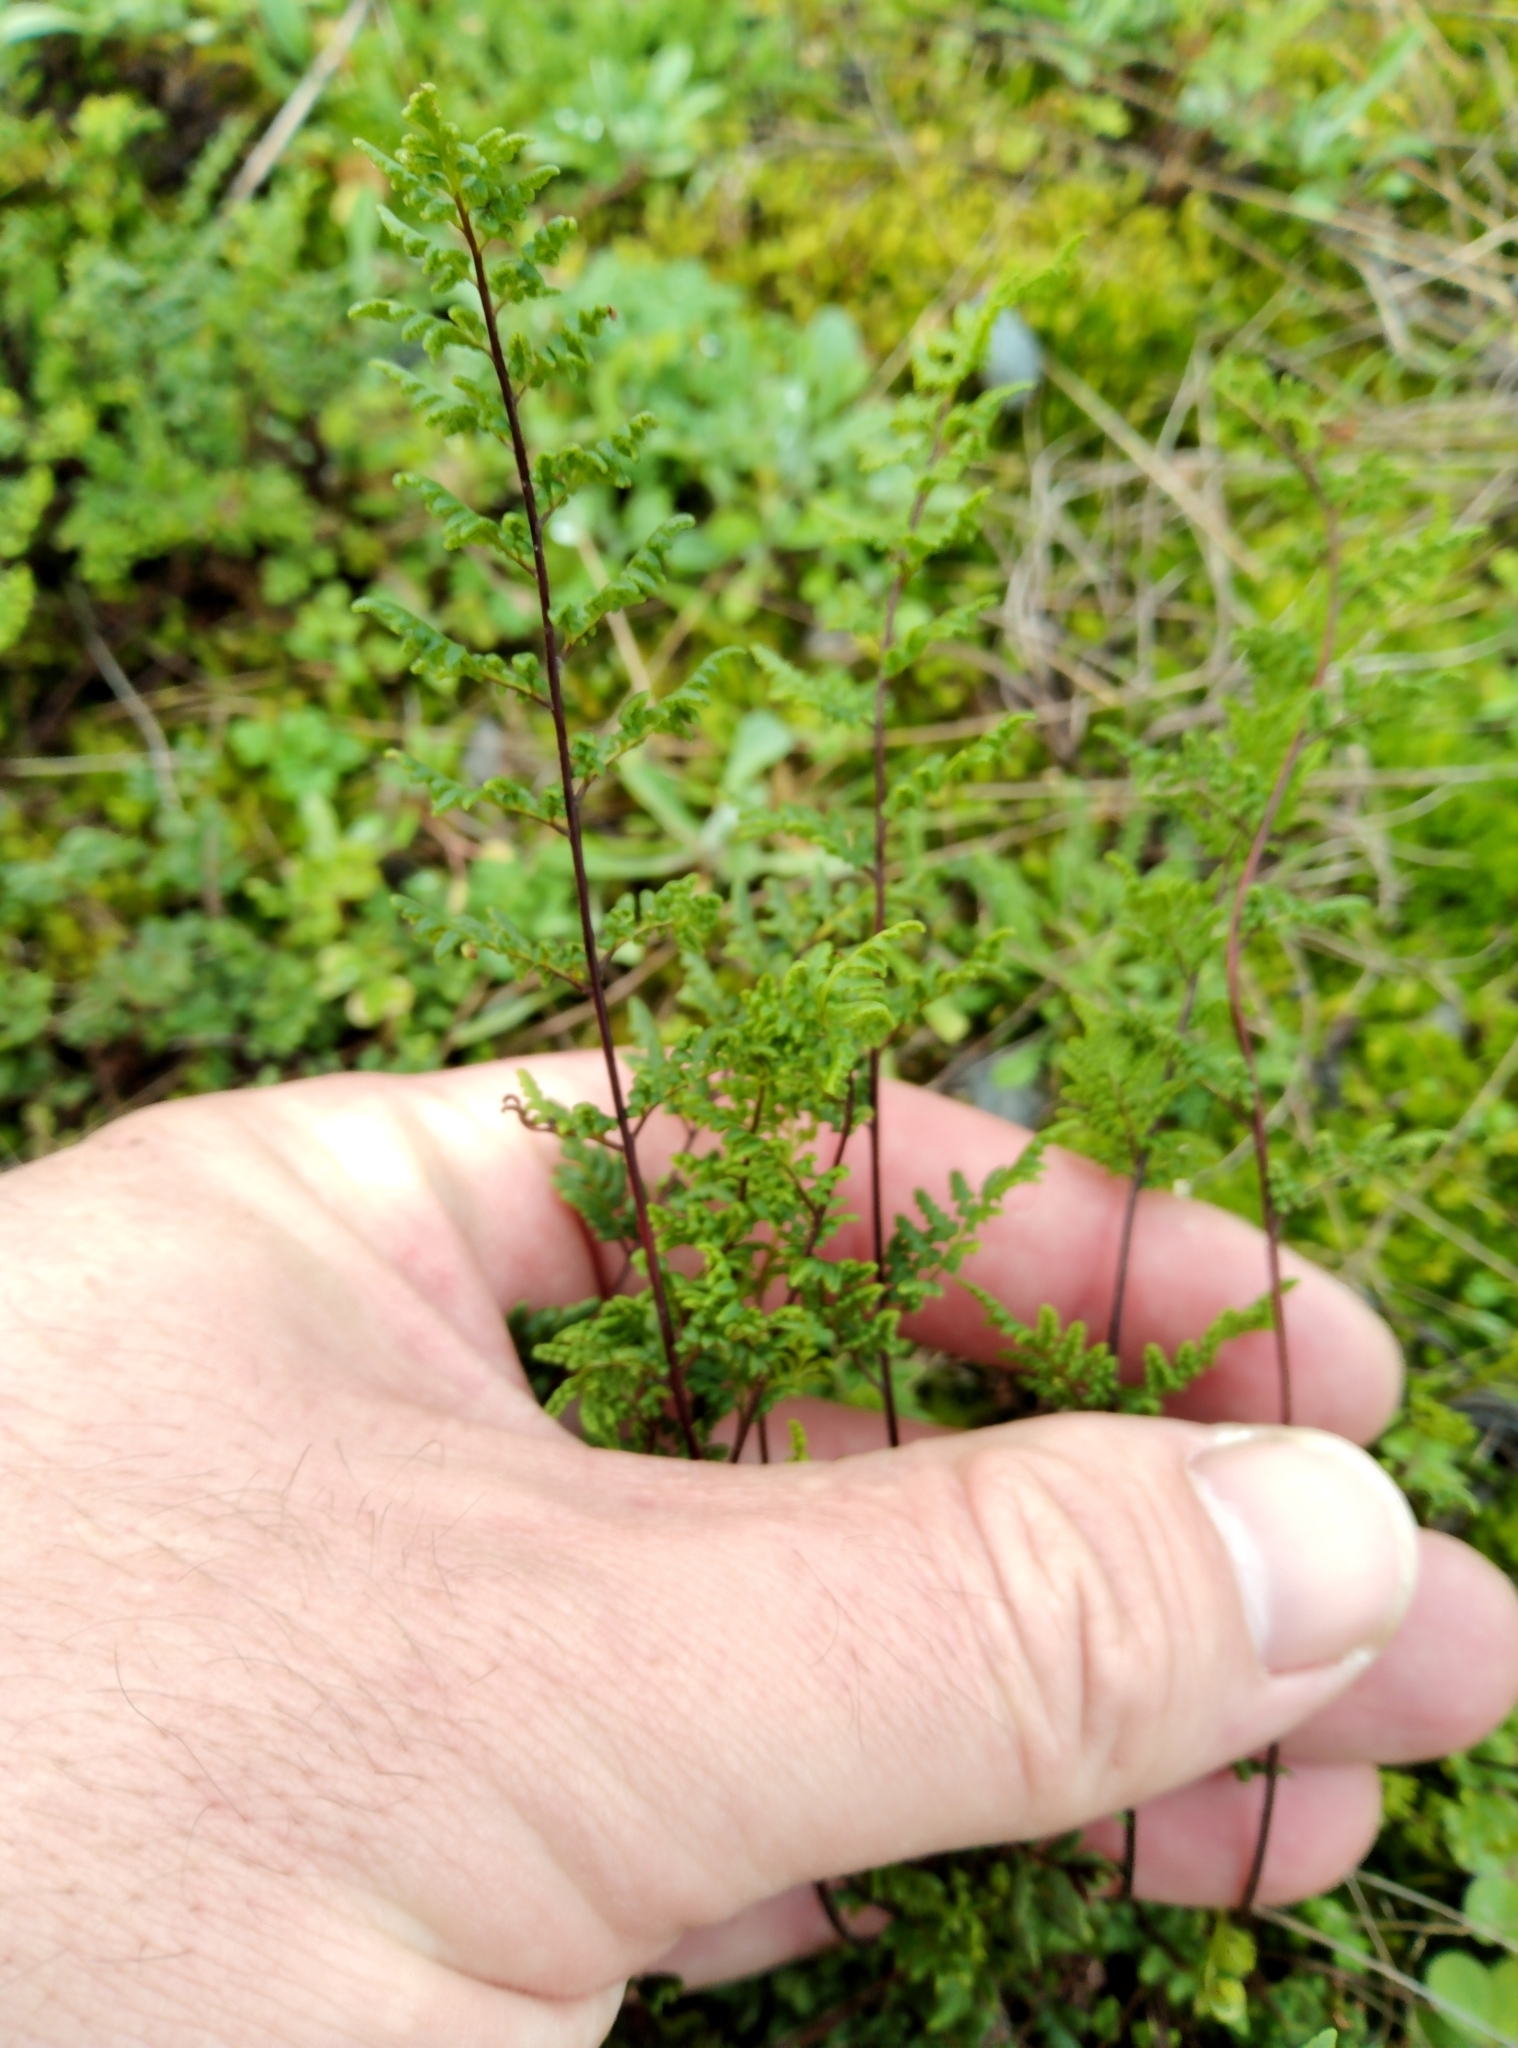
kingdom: Plantae
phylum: Tracheophyta
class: Polypodiopsida
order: Polypodiales
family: Pteridaceae
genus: Cheilanthes
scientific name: Cheilanthes sieberi
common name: Mulga fern
